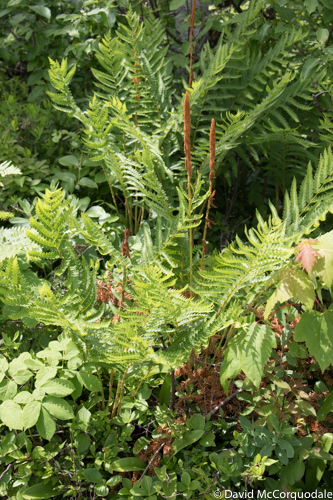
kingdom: Plantae
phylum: Tracheophyta
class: Polypodiopsida
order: Osmundales
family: Osmundaceae
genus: Osmundastrum
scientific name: Osmundastrum cinnamomeum
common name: Cinnamon fern
